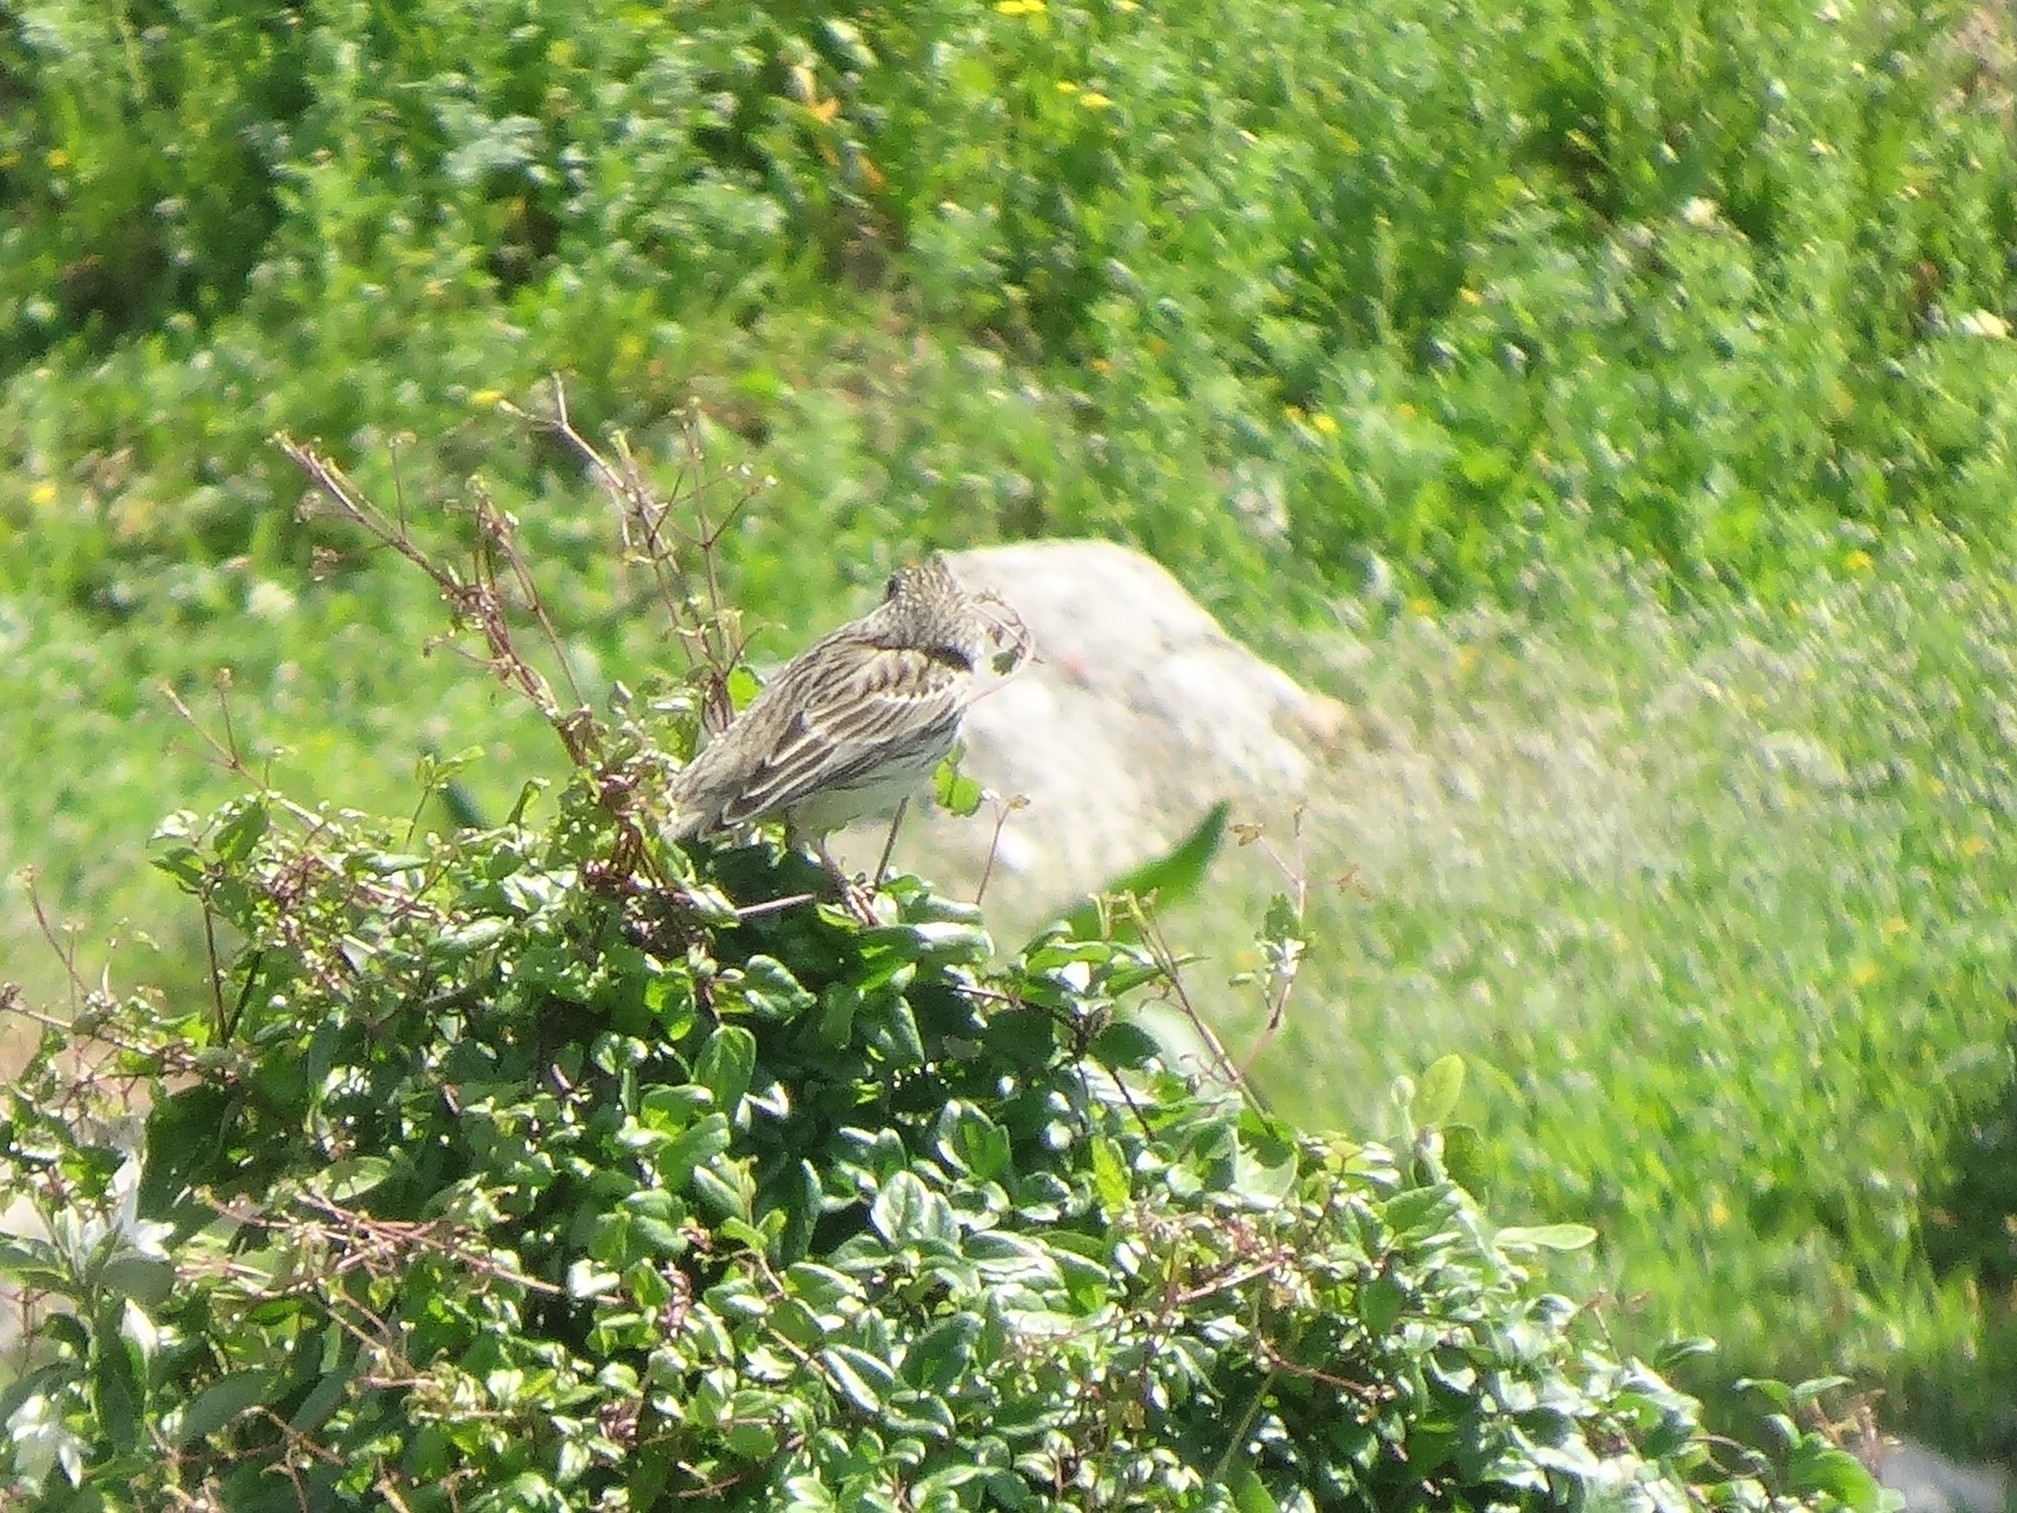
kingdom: Animalia
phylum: Chordata
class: Aves
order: Passeriformes
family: Emberizidae
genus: Emberiza
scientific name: Emberiza calandra
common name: Corn bunting
